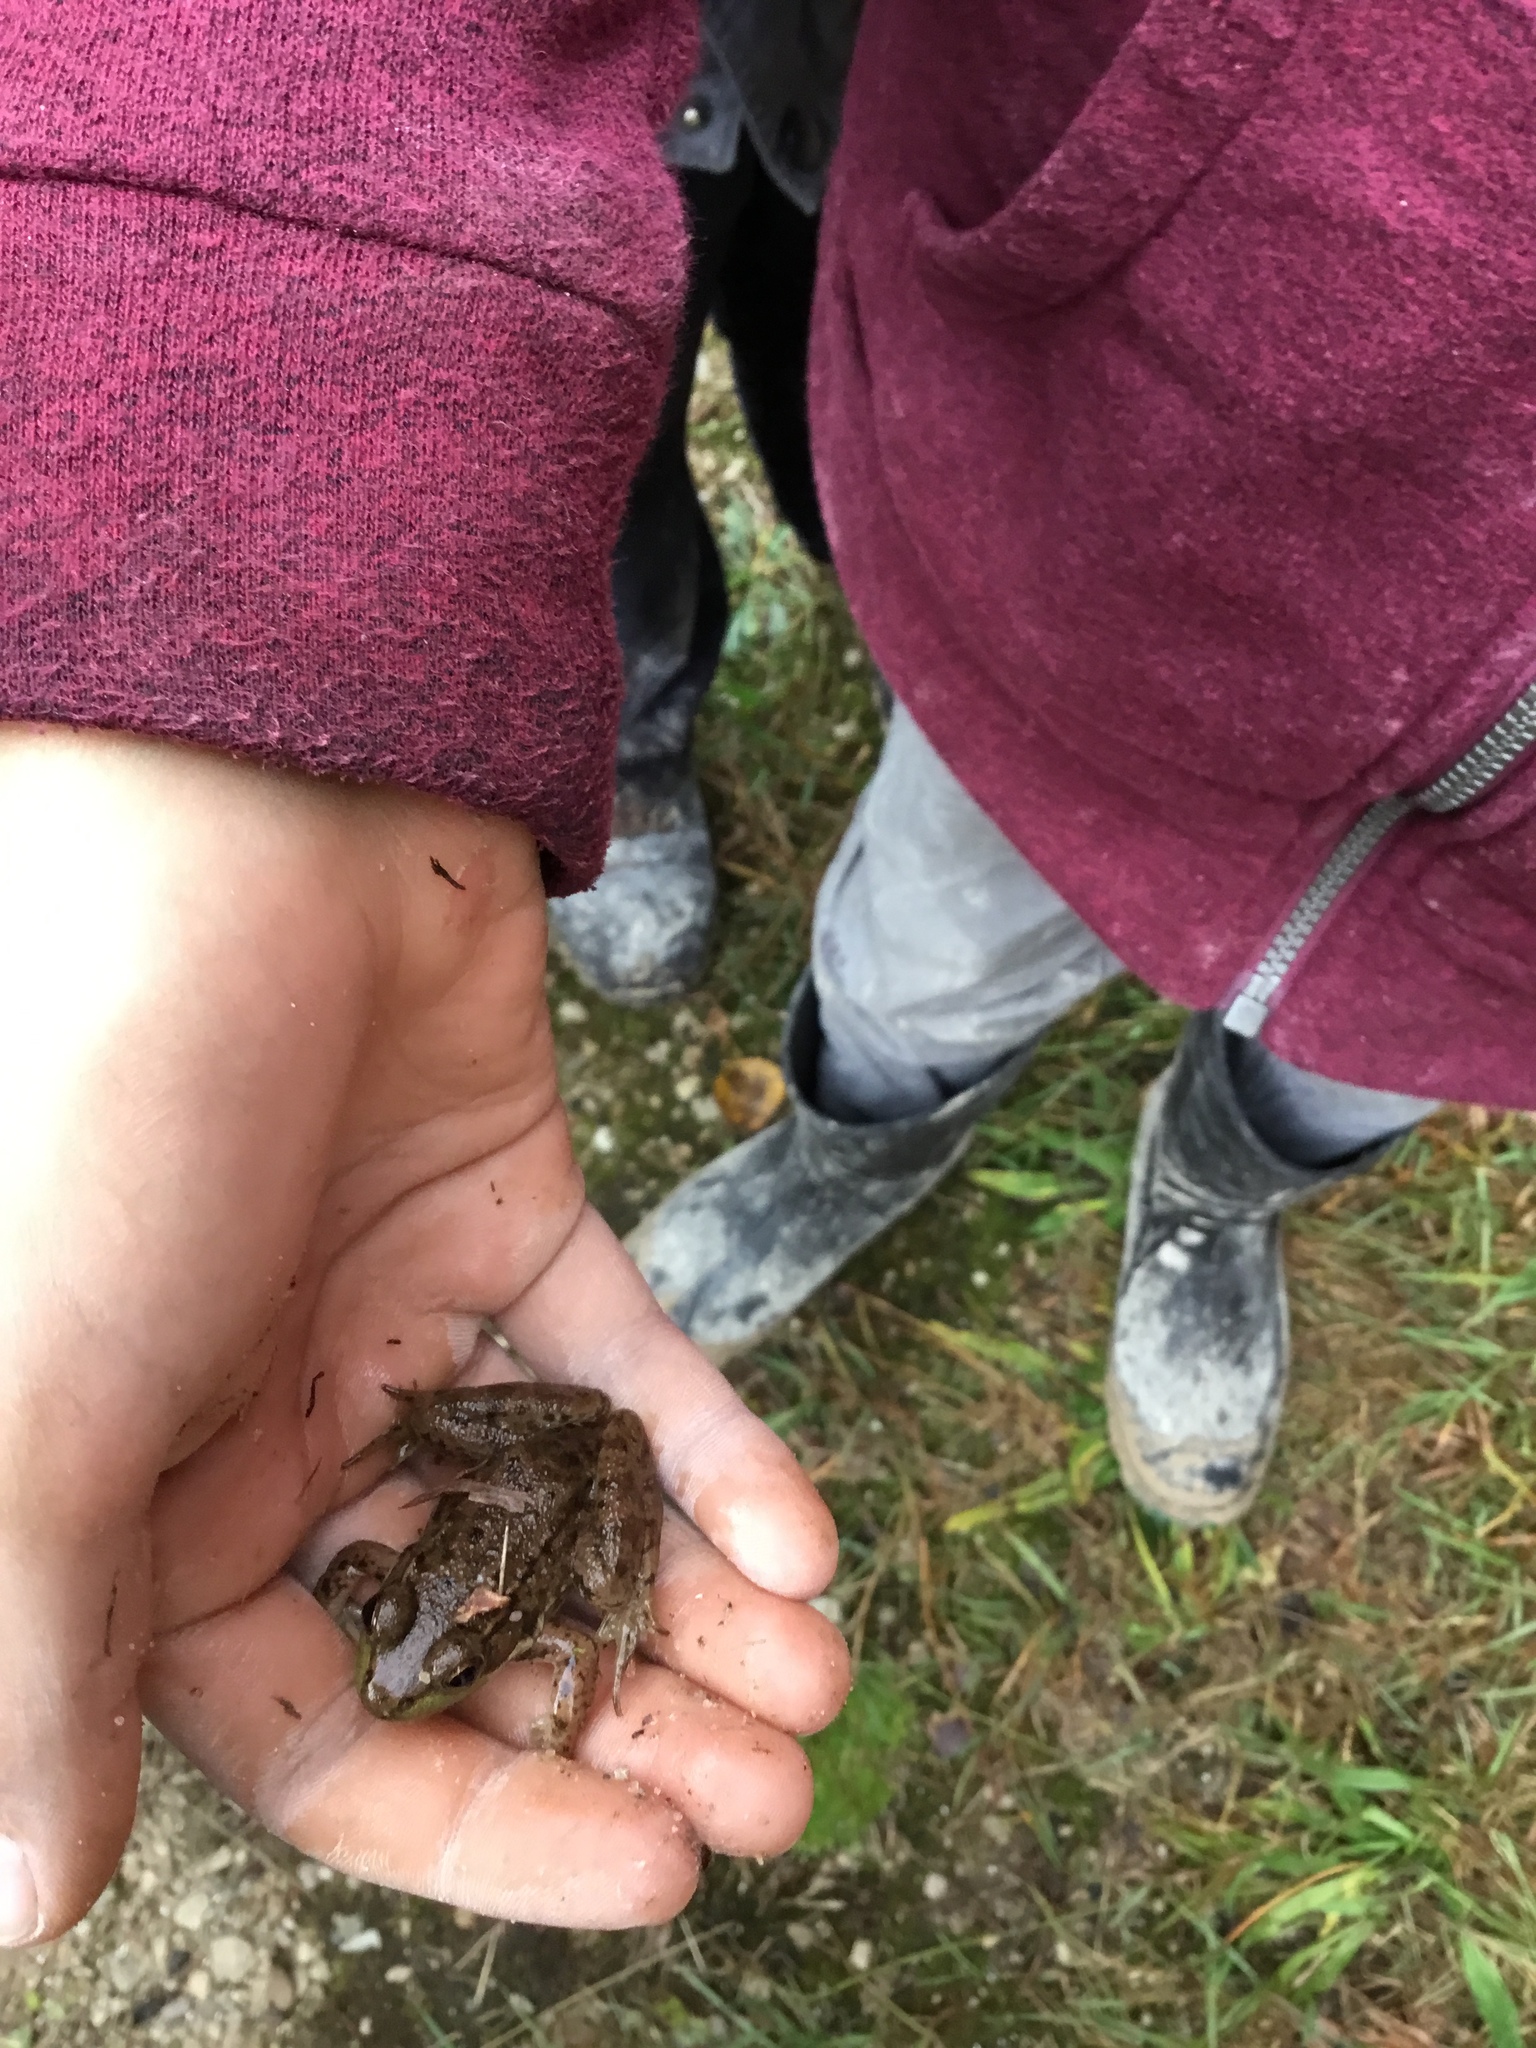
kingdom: Animalia
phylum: Chordata
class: Amphibia
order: Anura
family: Ranidae
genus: Lithobates
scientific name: Lithobates clamitans
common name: Green frog
